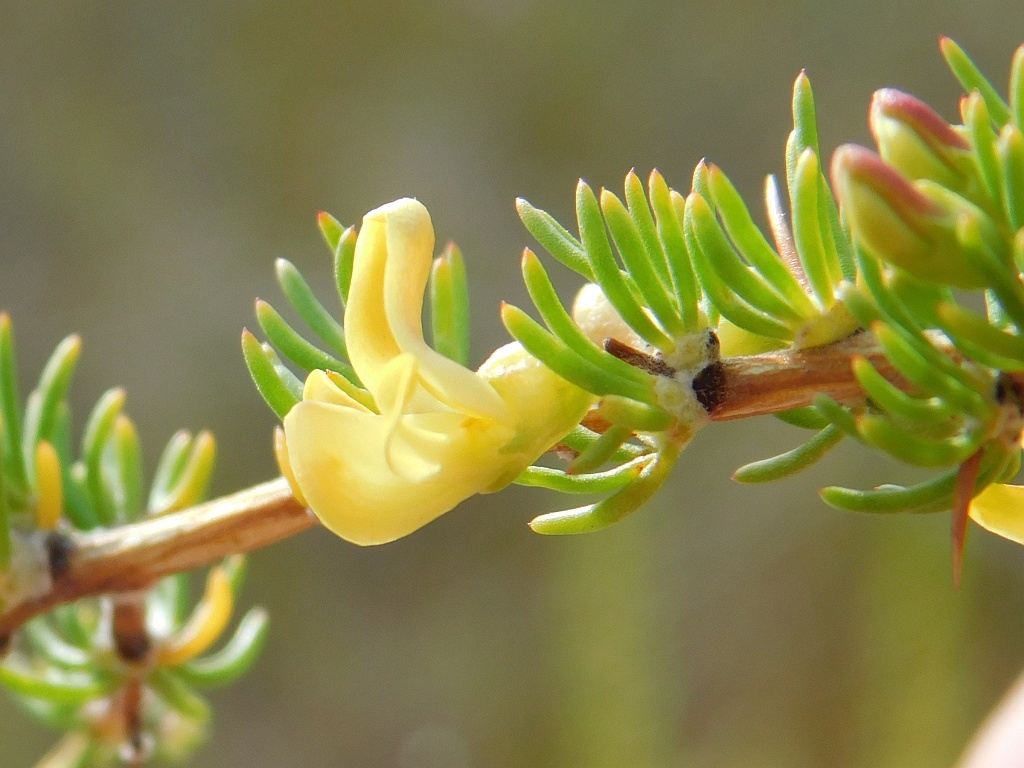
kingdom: Plantae
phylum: Tracheophyta
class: Magnoliopsida
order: Fabales
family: Fabaceae
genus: Aspalathus
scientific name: Aspalathus spinosa
